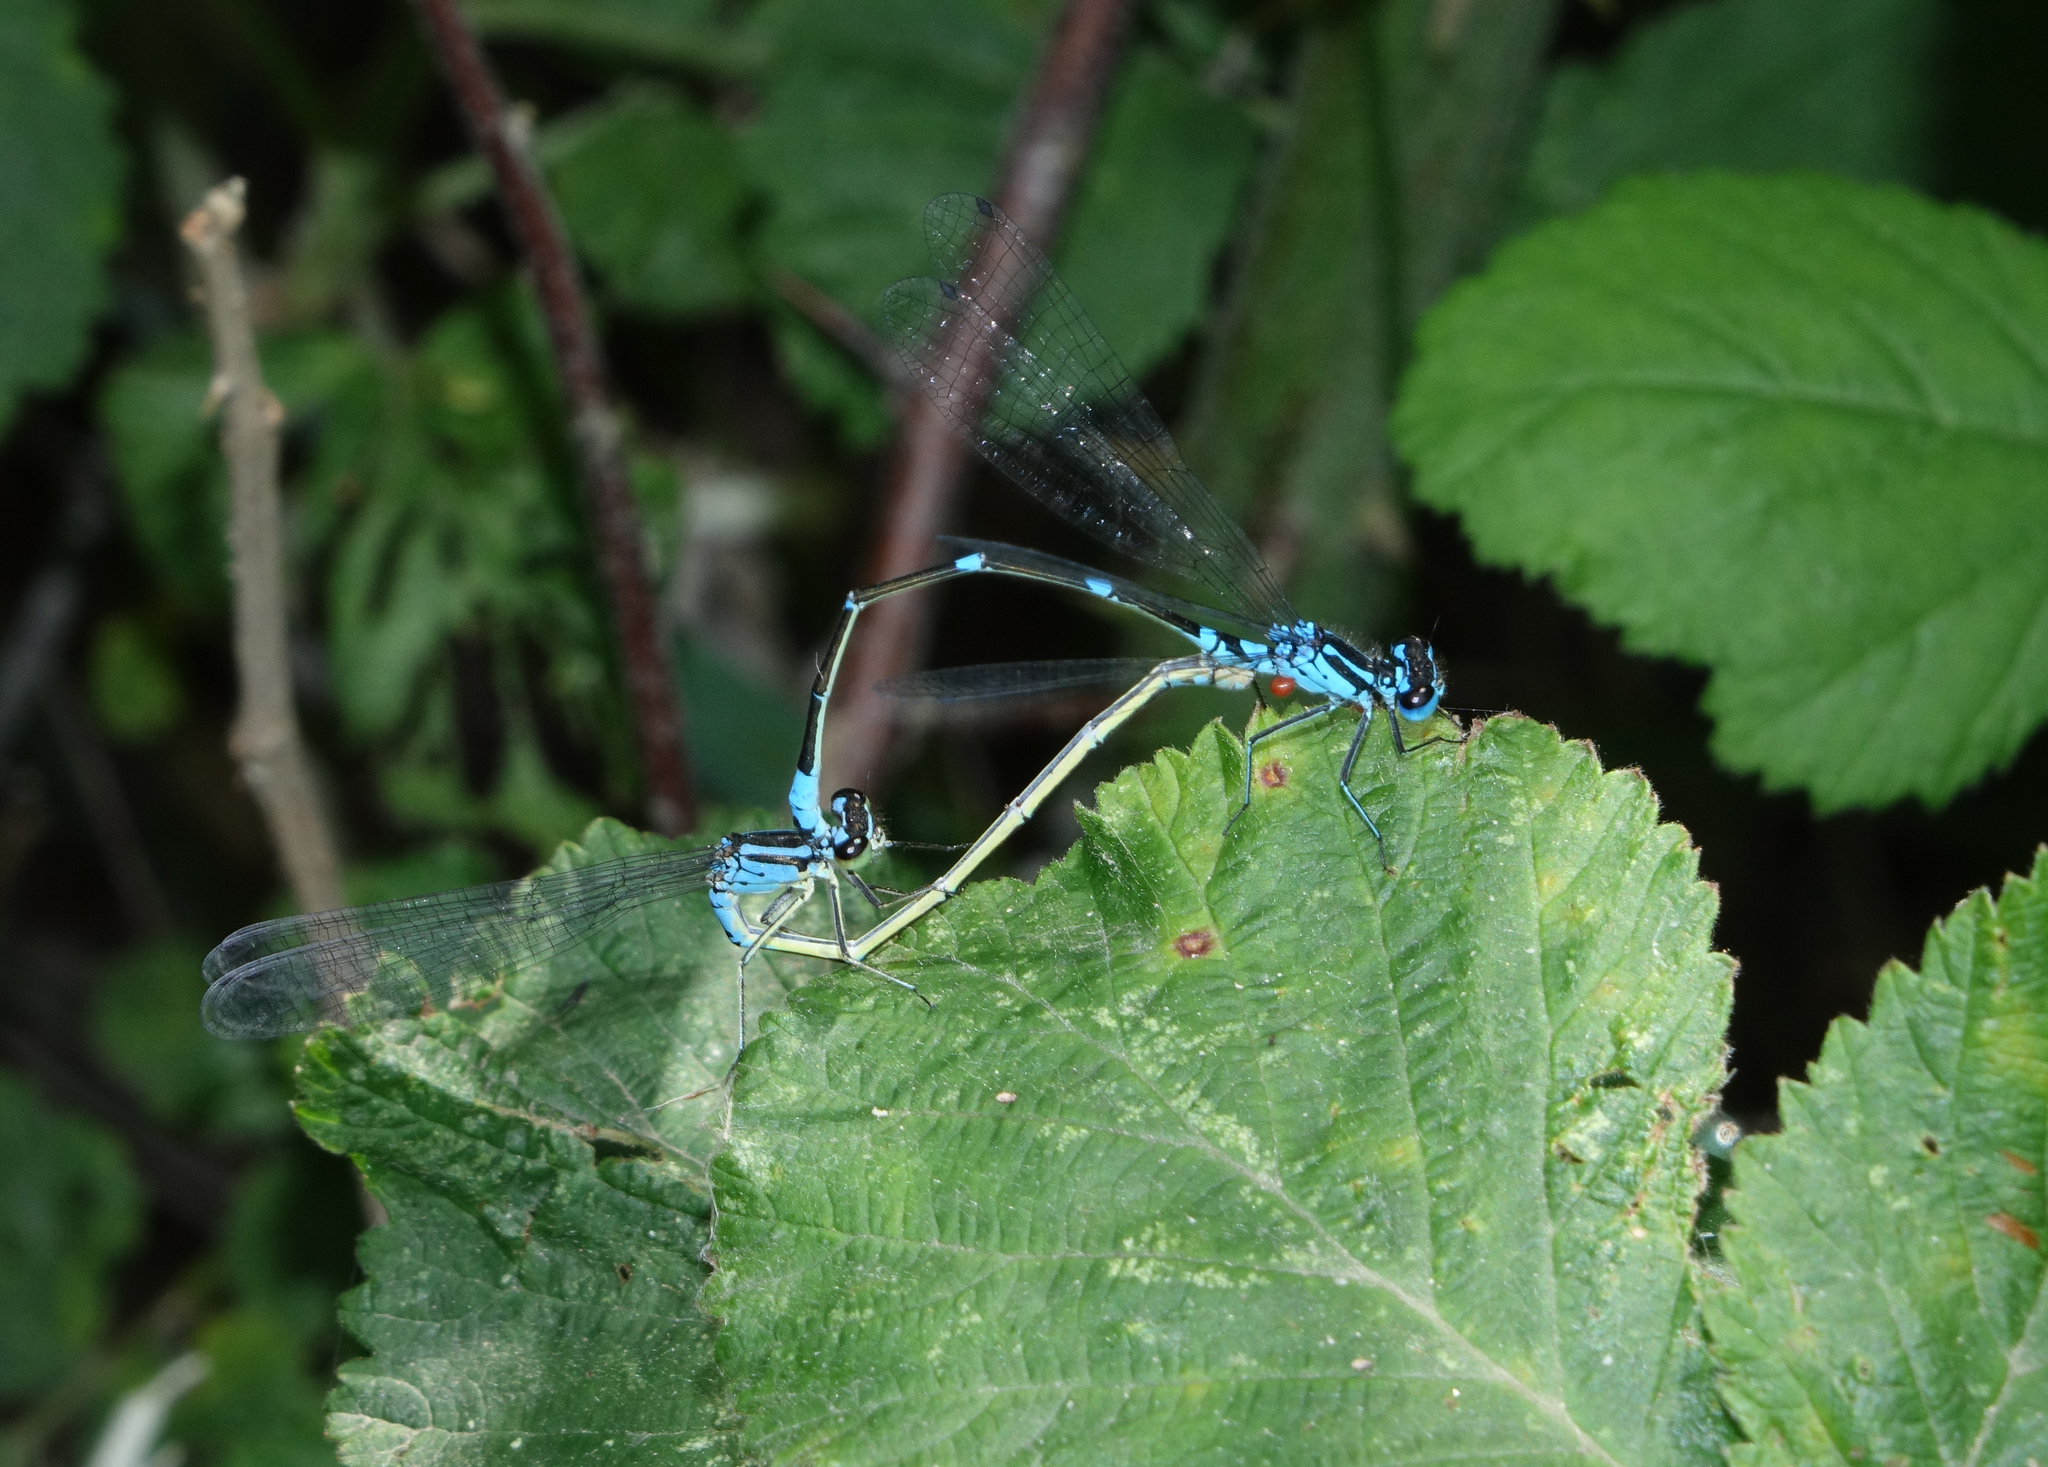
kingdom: Animalia
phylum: Arthropoda
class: Insecta
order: Odonata
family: Coenagrionidae
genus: Coenagrion
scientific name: Coenagrion pulchellum
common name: Variable bluet
